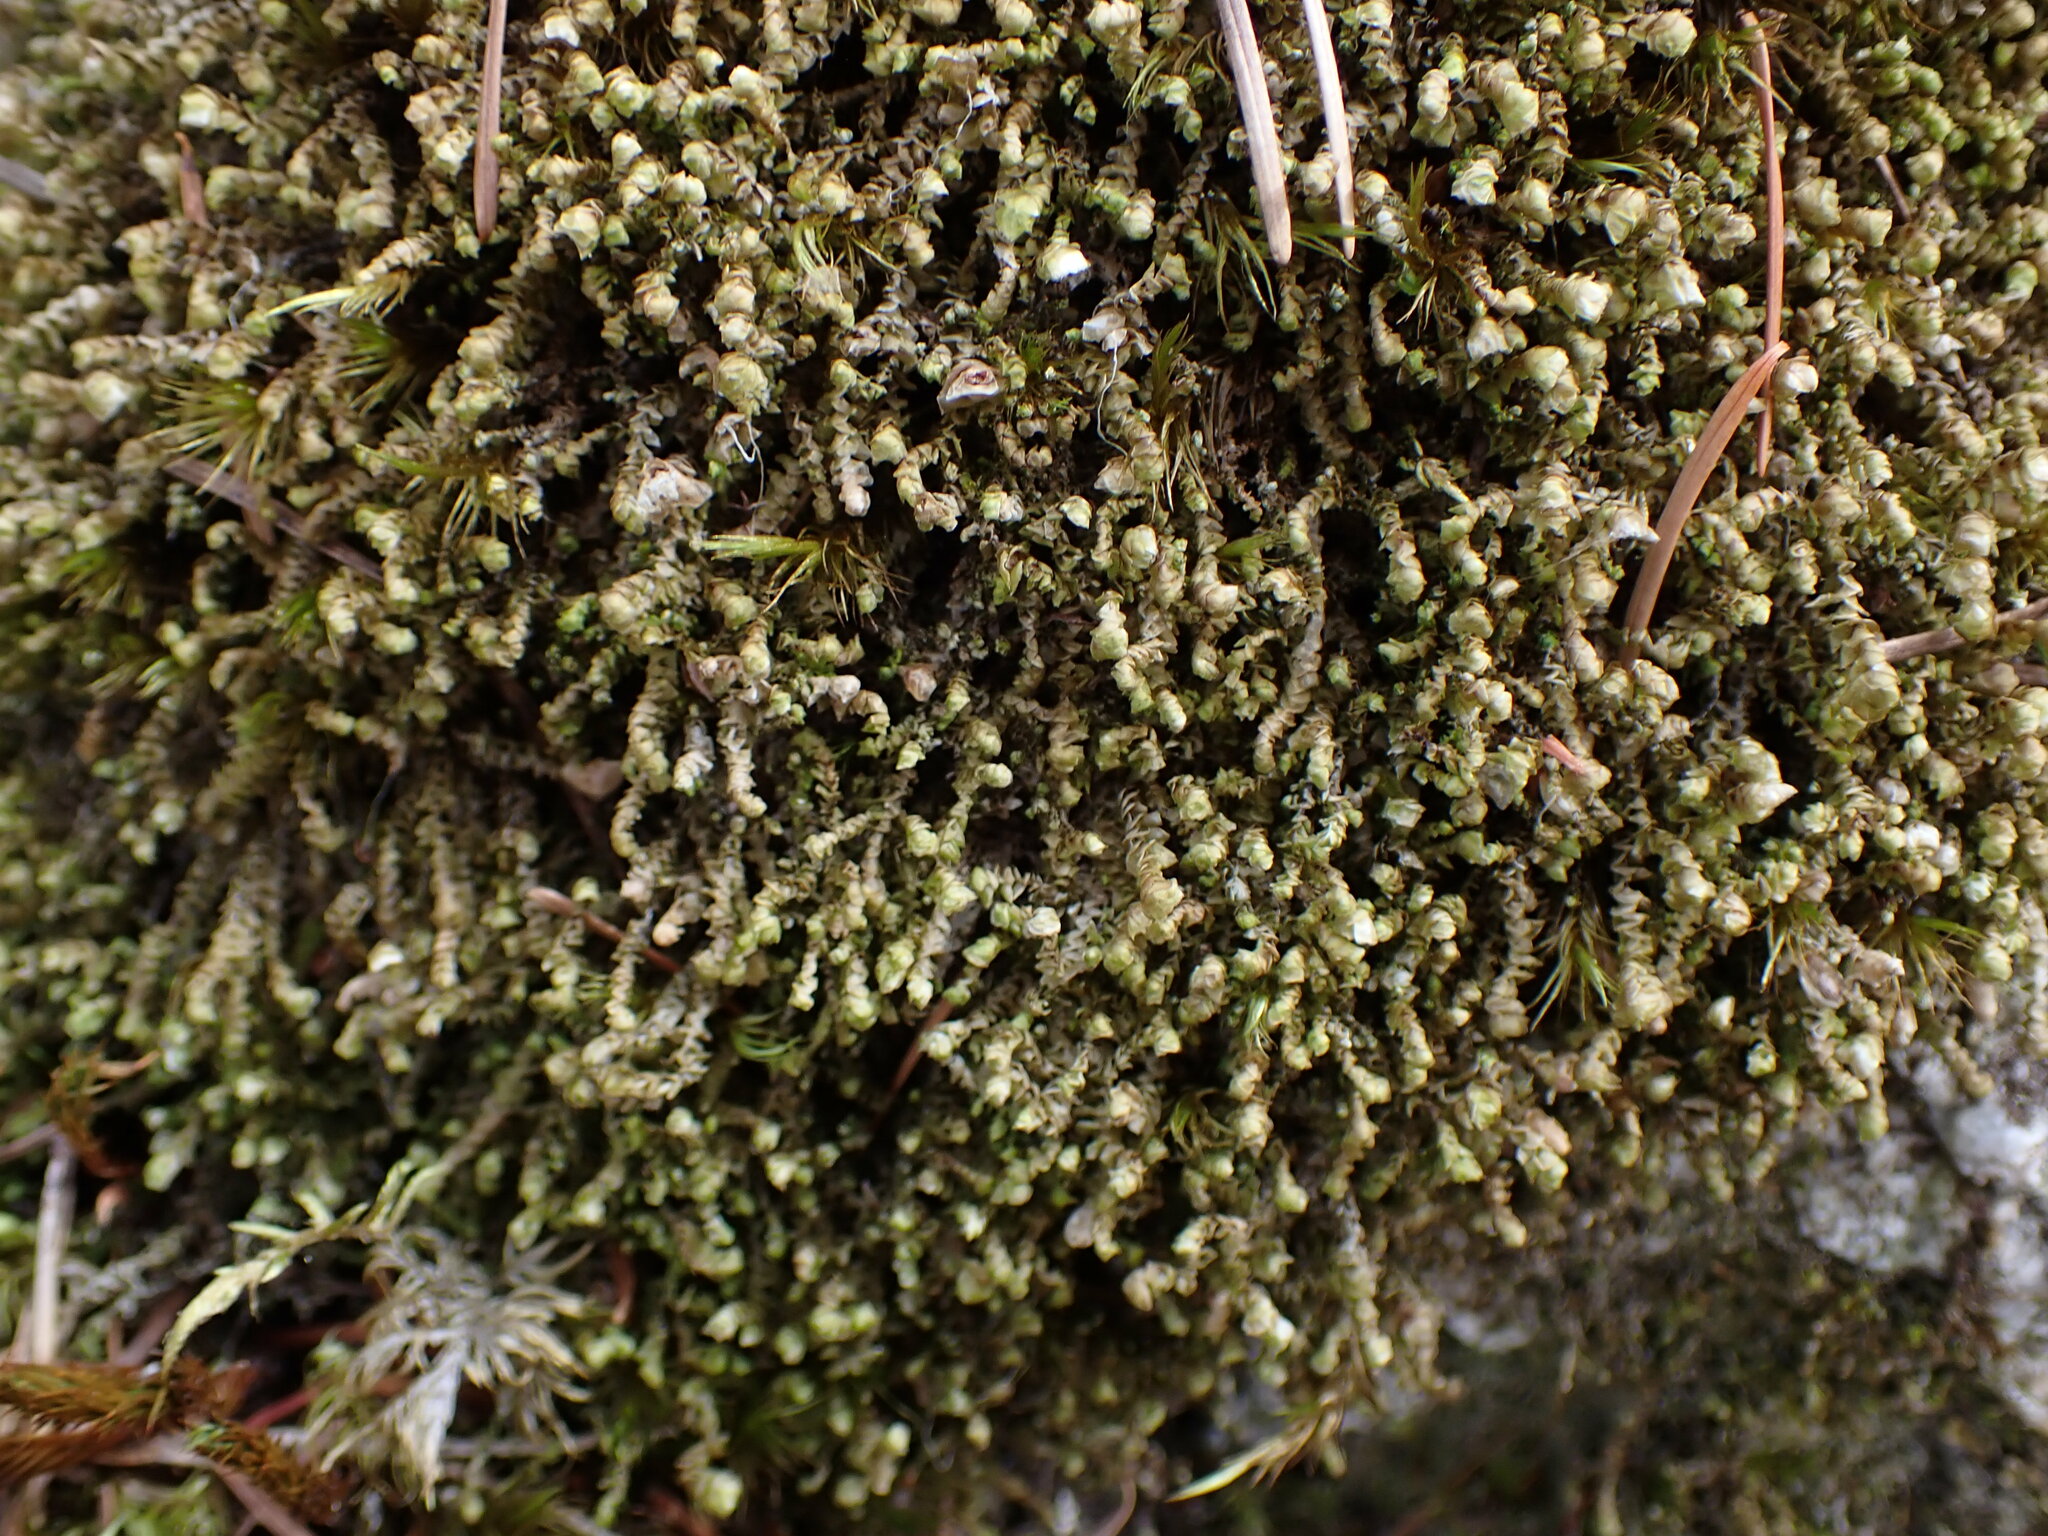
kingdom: Plantae
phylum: Marchantiophyta
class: Jungermanniopsida
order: Jungermanniales
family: Scapaniaceae
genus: Scapania
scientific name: Scapania americana
